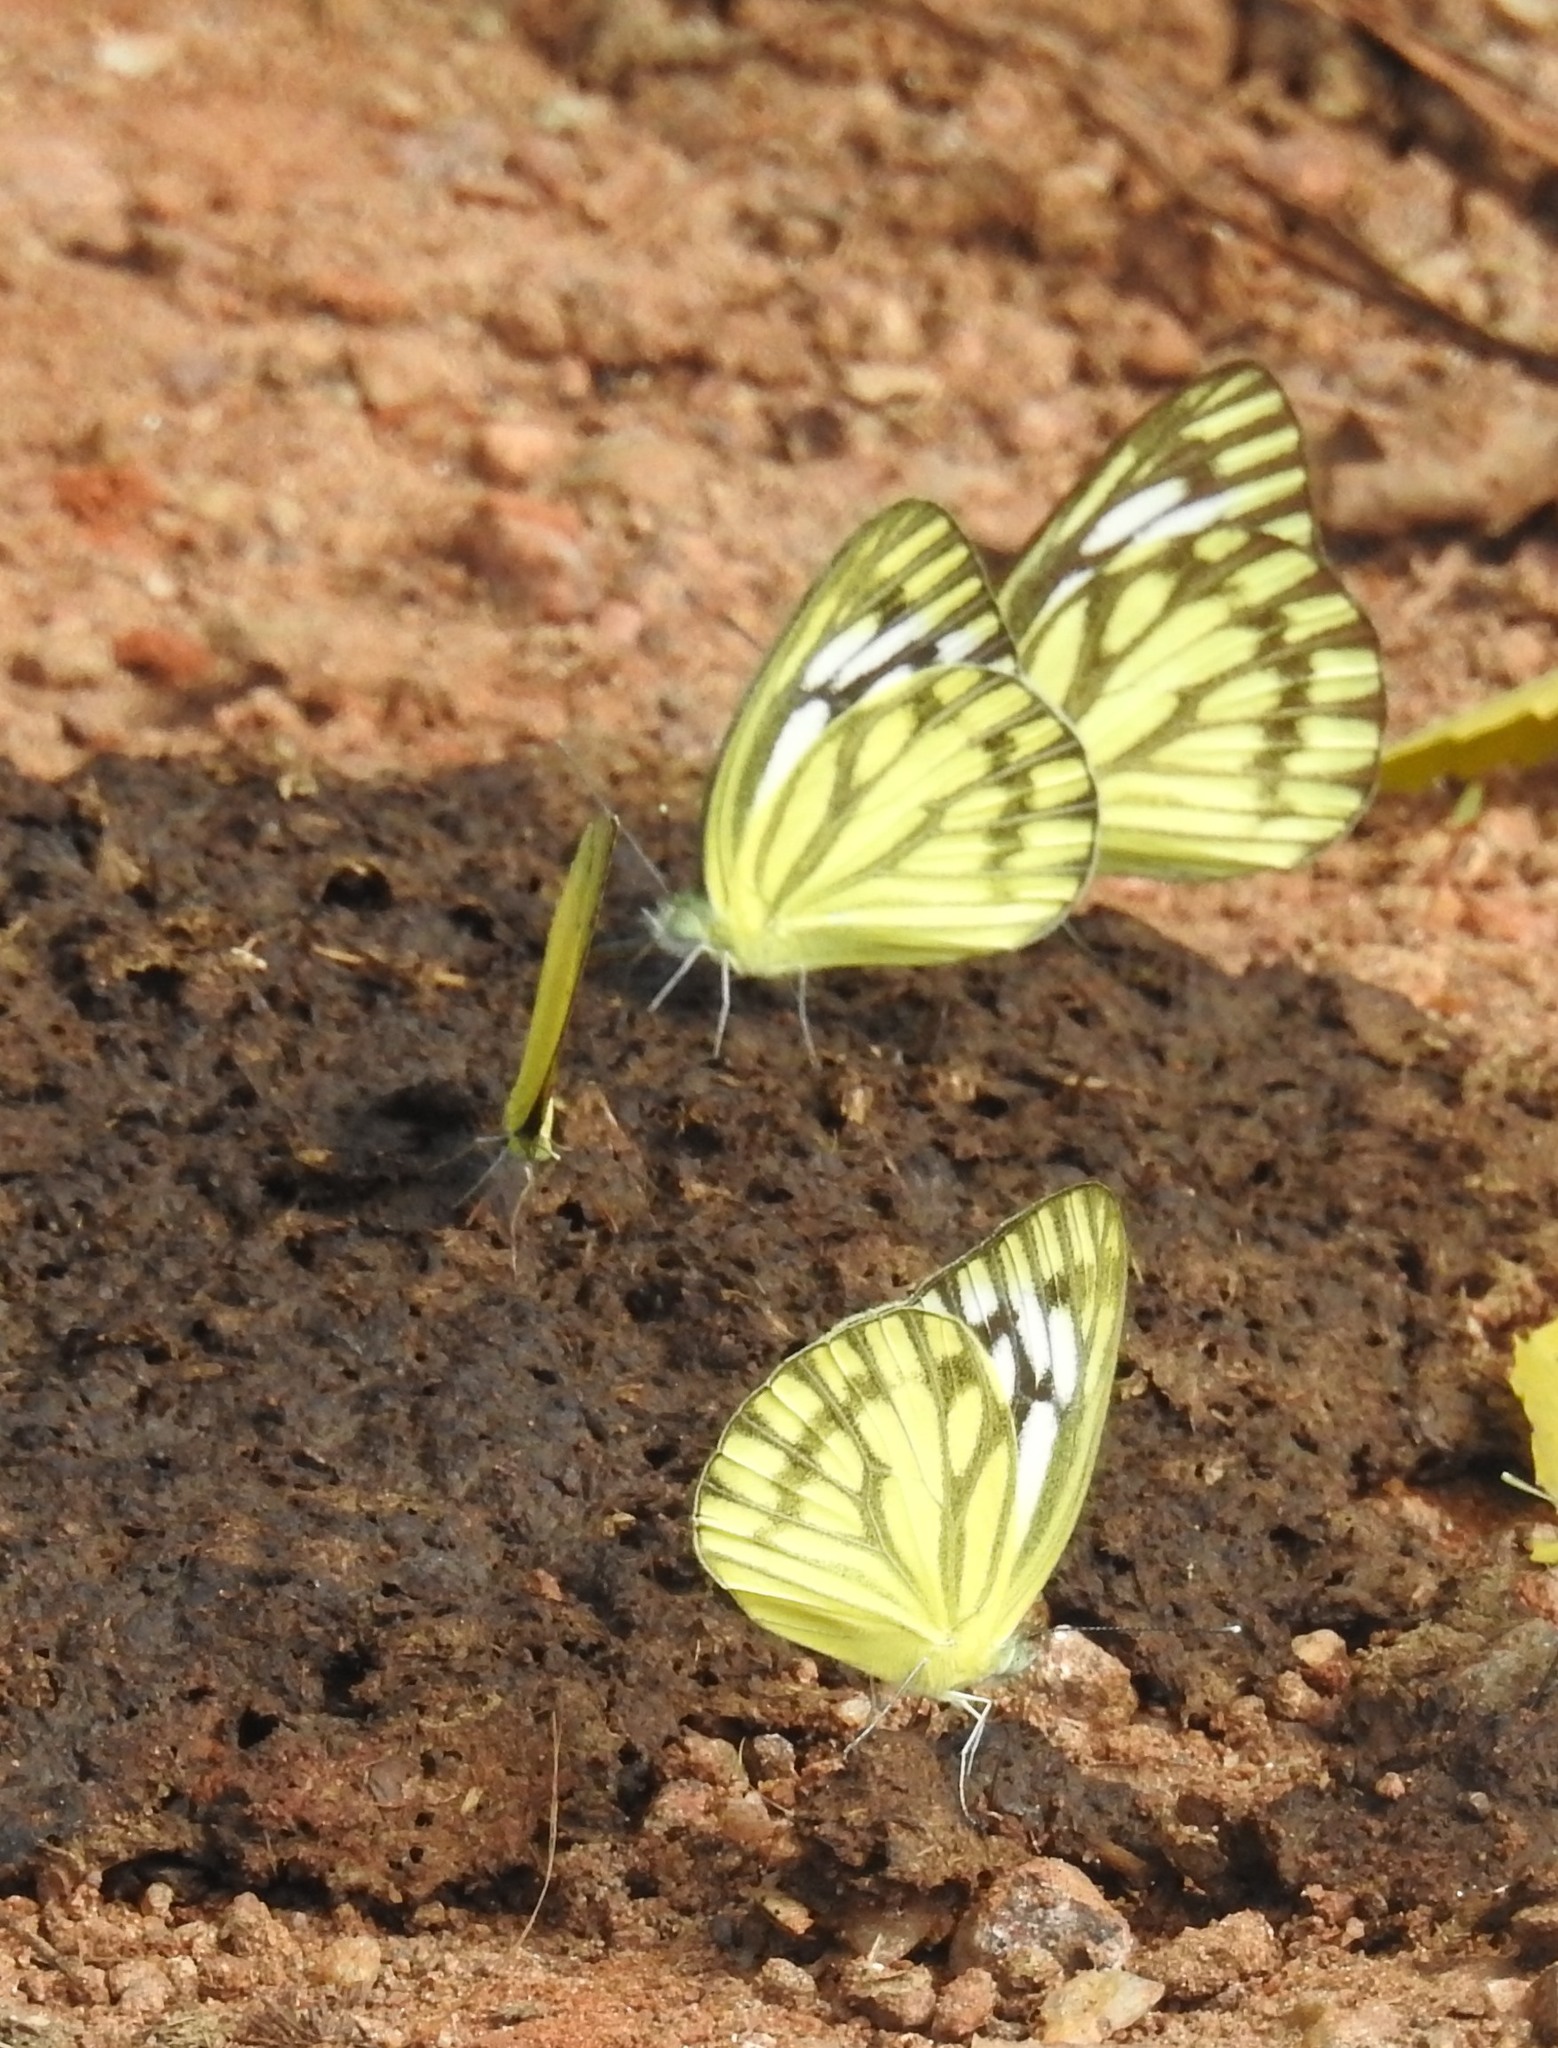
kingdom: Animalia
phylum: Arthropoda
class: Insecta
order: Lepidoptera
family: Pieridae
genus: Cepora
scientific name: Cepora nerissa
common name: Common gull
